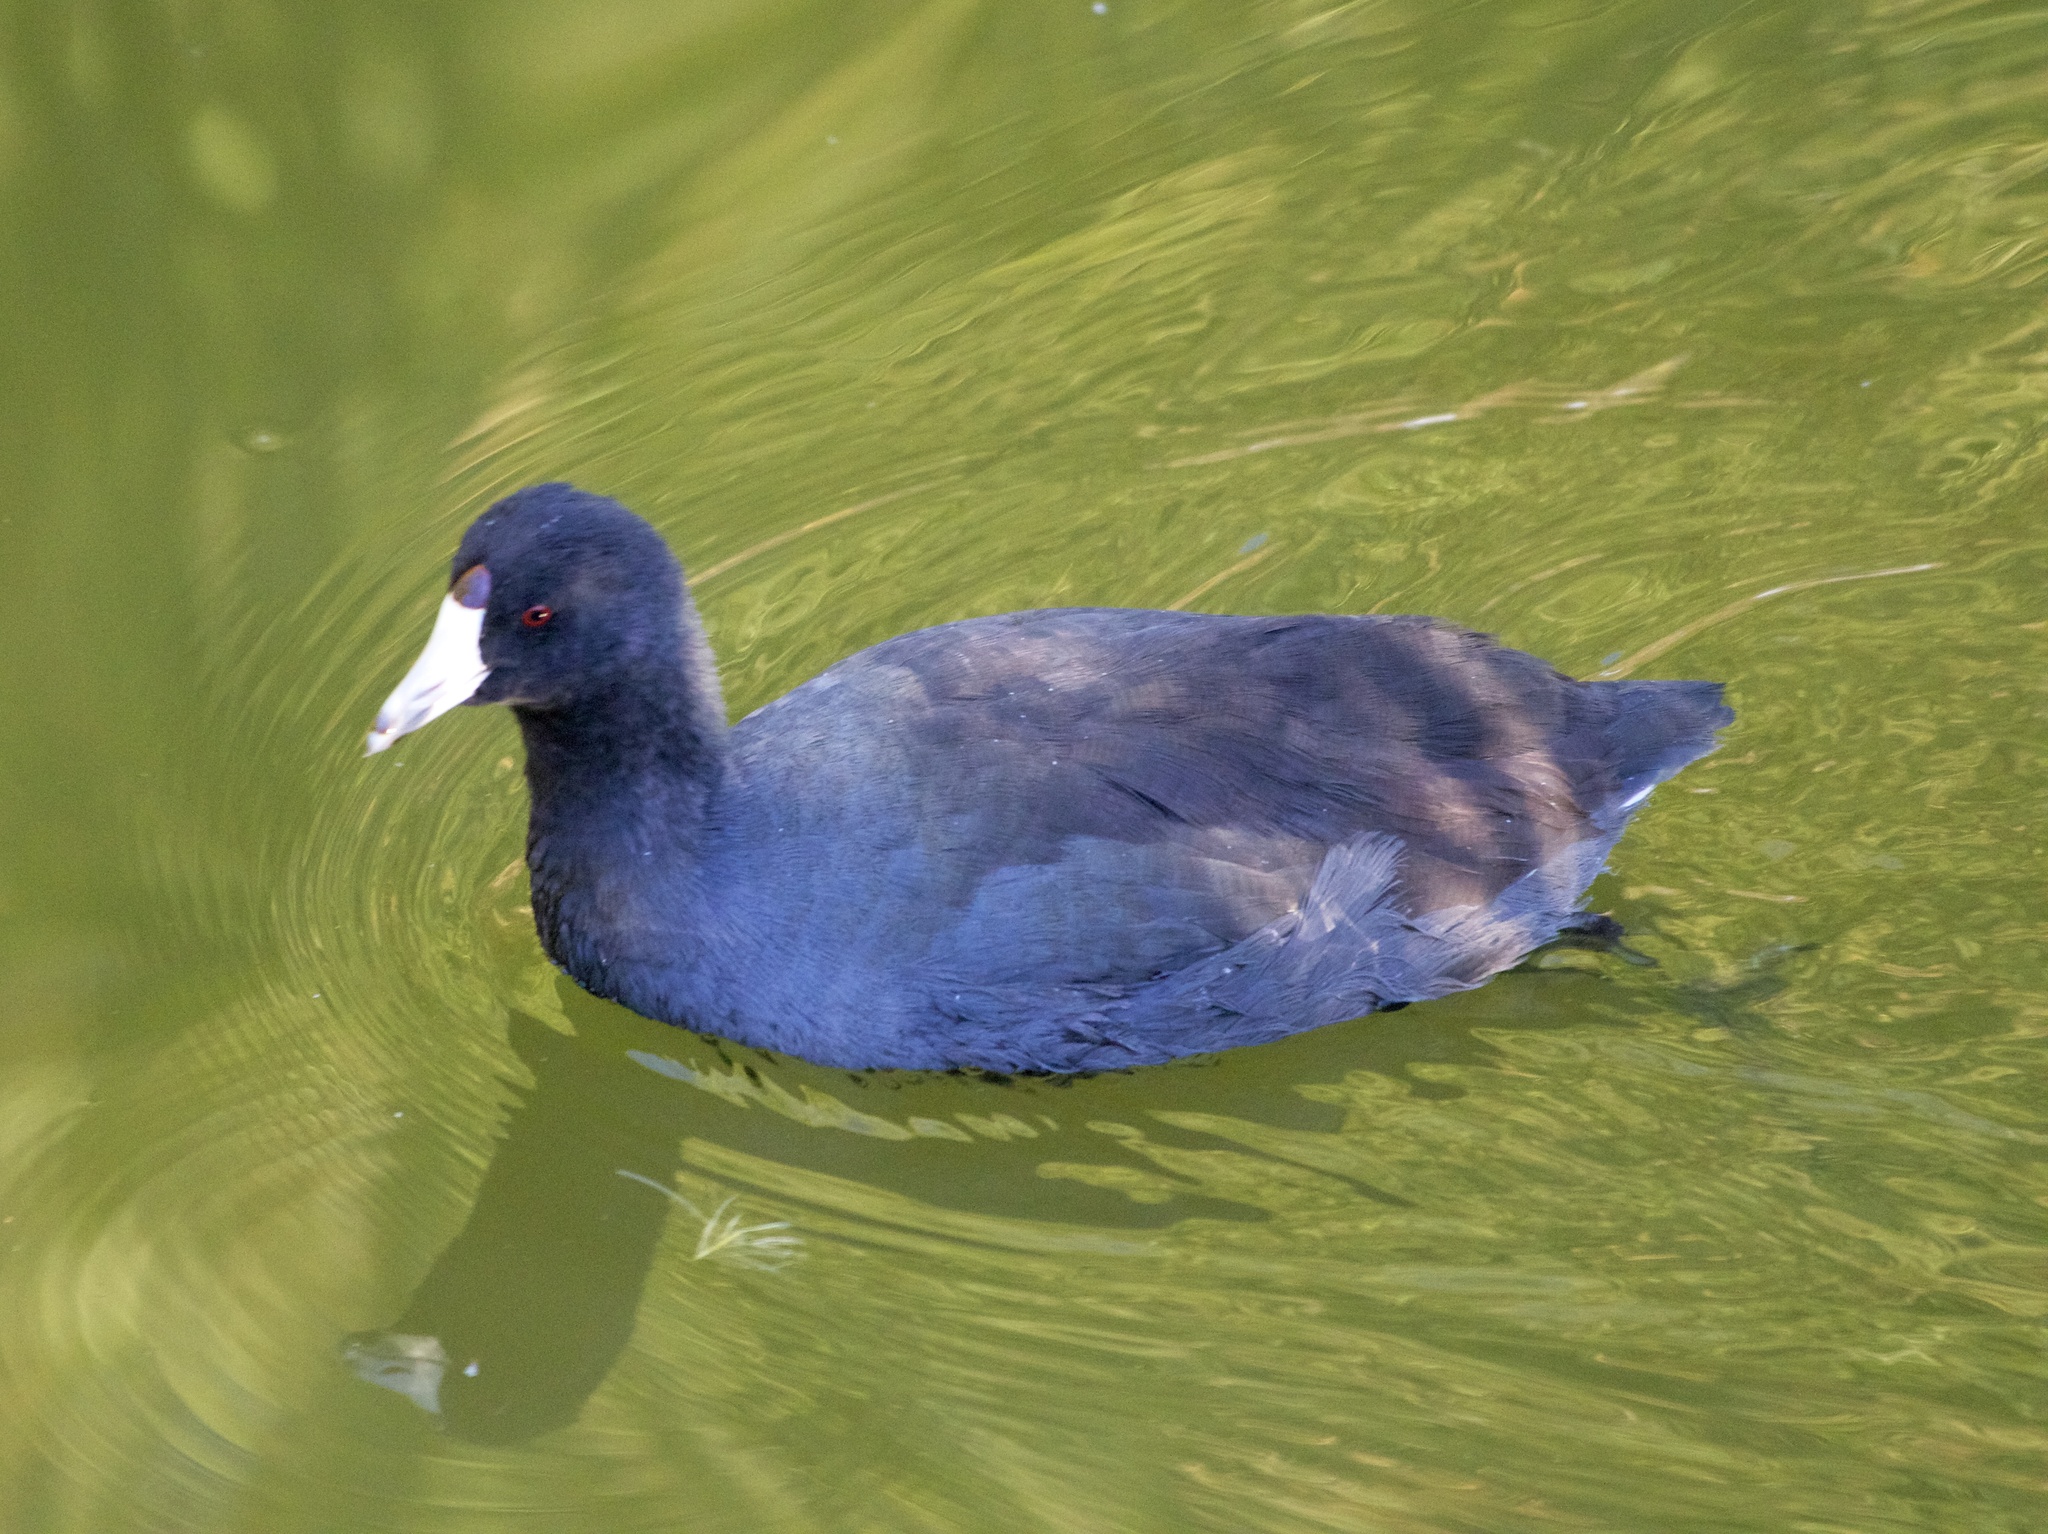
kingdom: Animalia
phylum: Chordata
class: Aves
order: Gruiformes
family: Rallidae
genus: Fulica
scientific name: Fulica americana
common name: American coot
